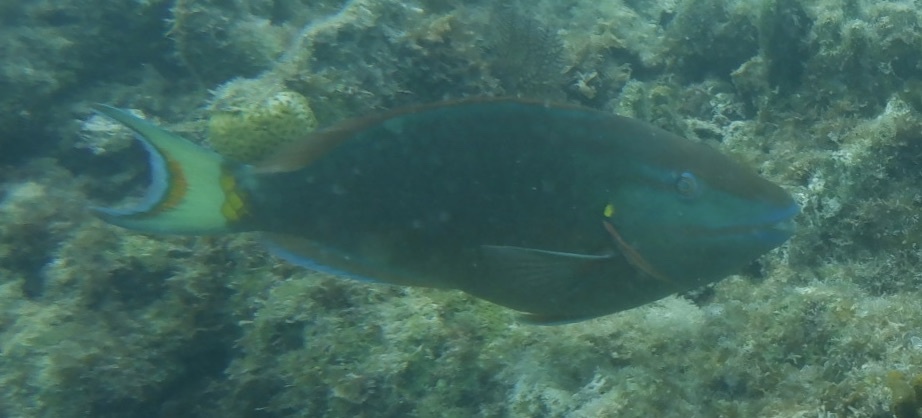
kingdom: Animalia
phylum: Chordata
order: Perciformes
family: Scaridae
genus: Sparisoma
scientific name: Sparisoma viride
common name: Stoplight parrotfish
